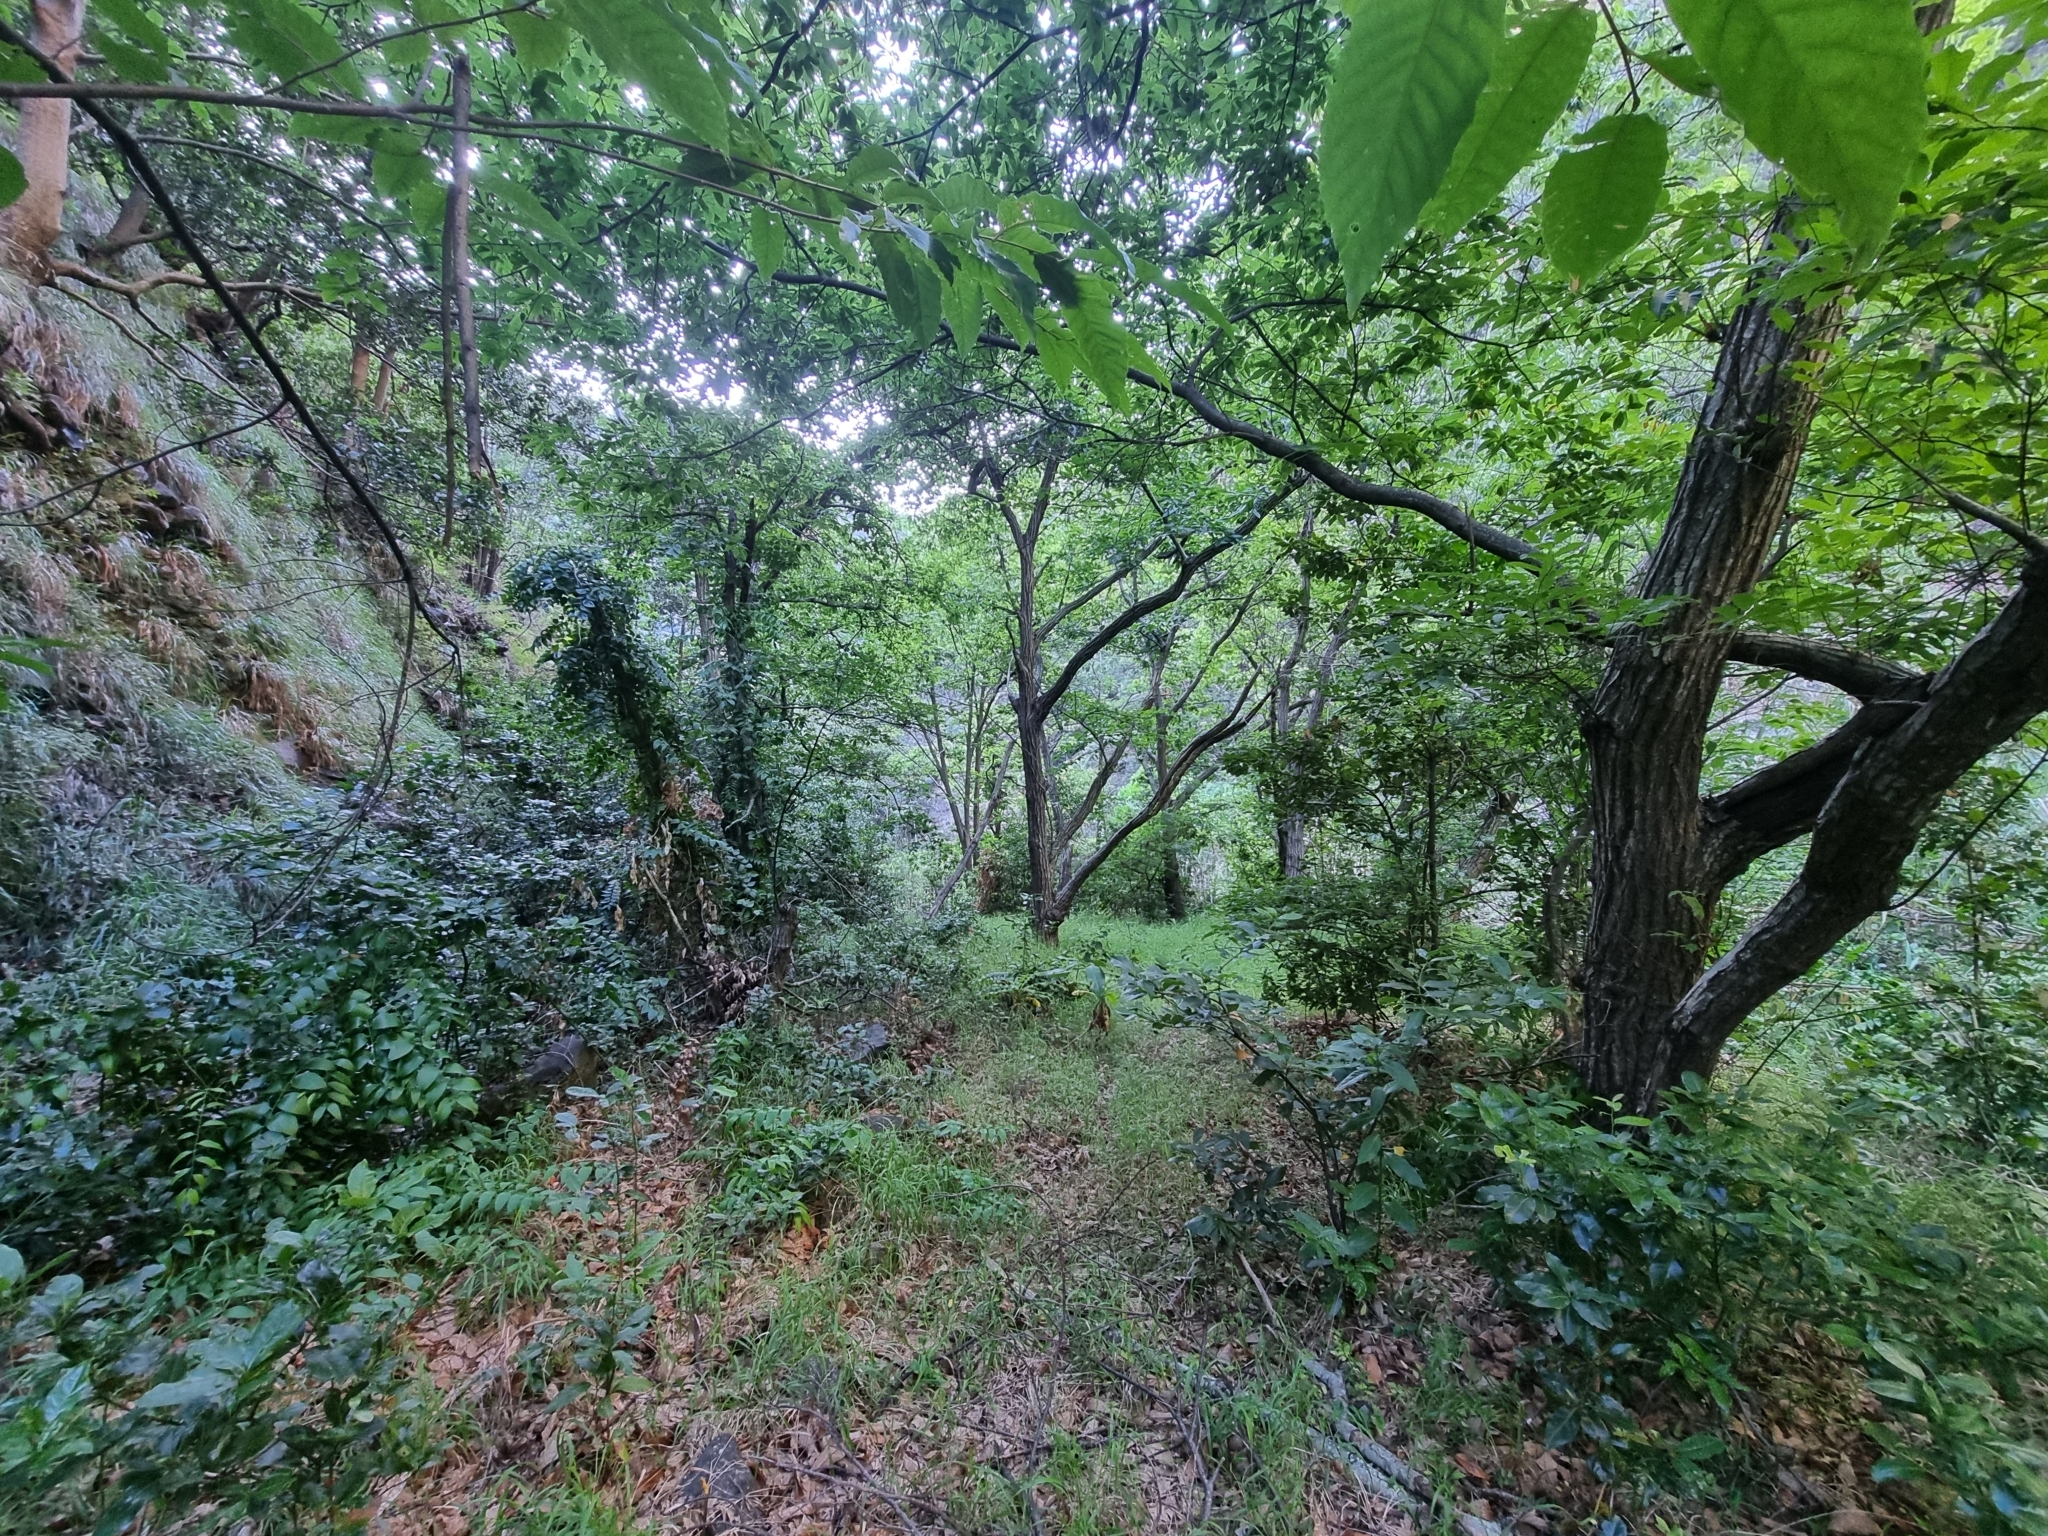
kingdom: Plantae
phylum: Tracheophyta
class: Liliopsida
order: Asparagales
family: Asparagaceae
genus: Semele
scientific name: Semele androgyna
